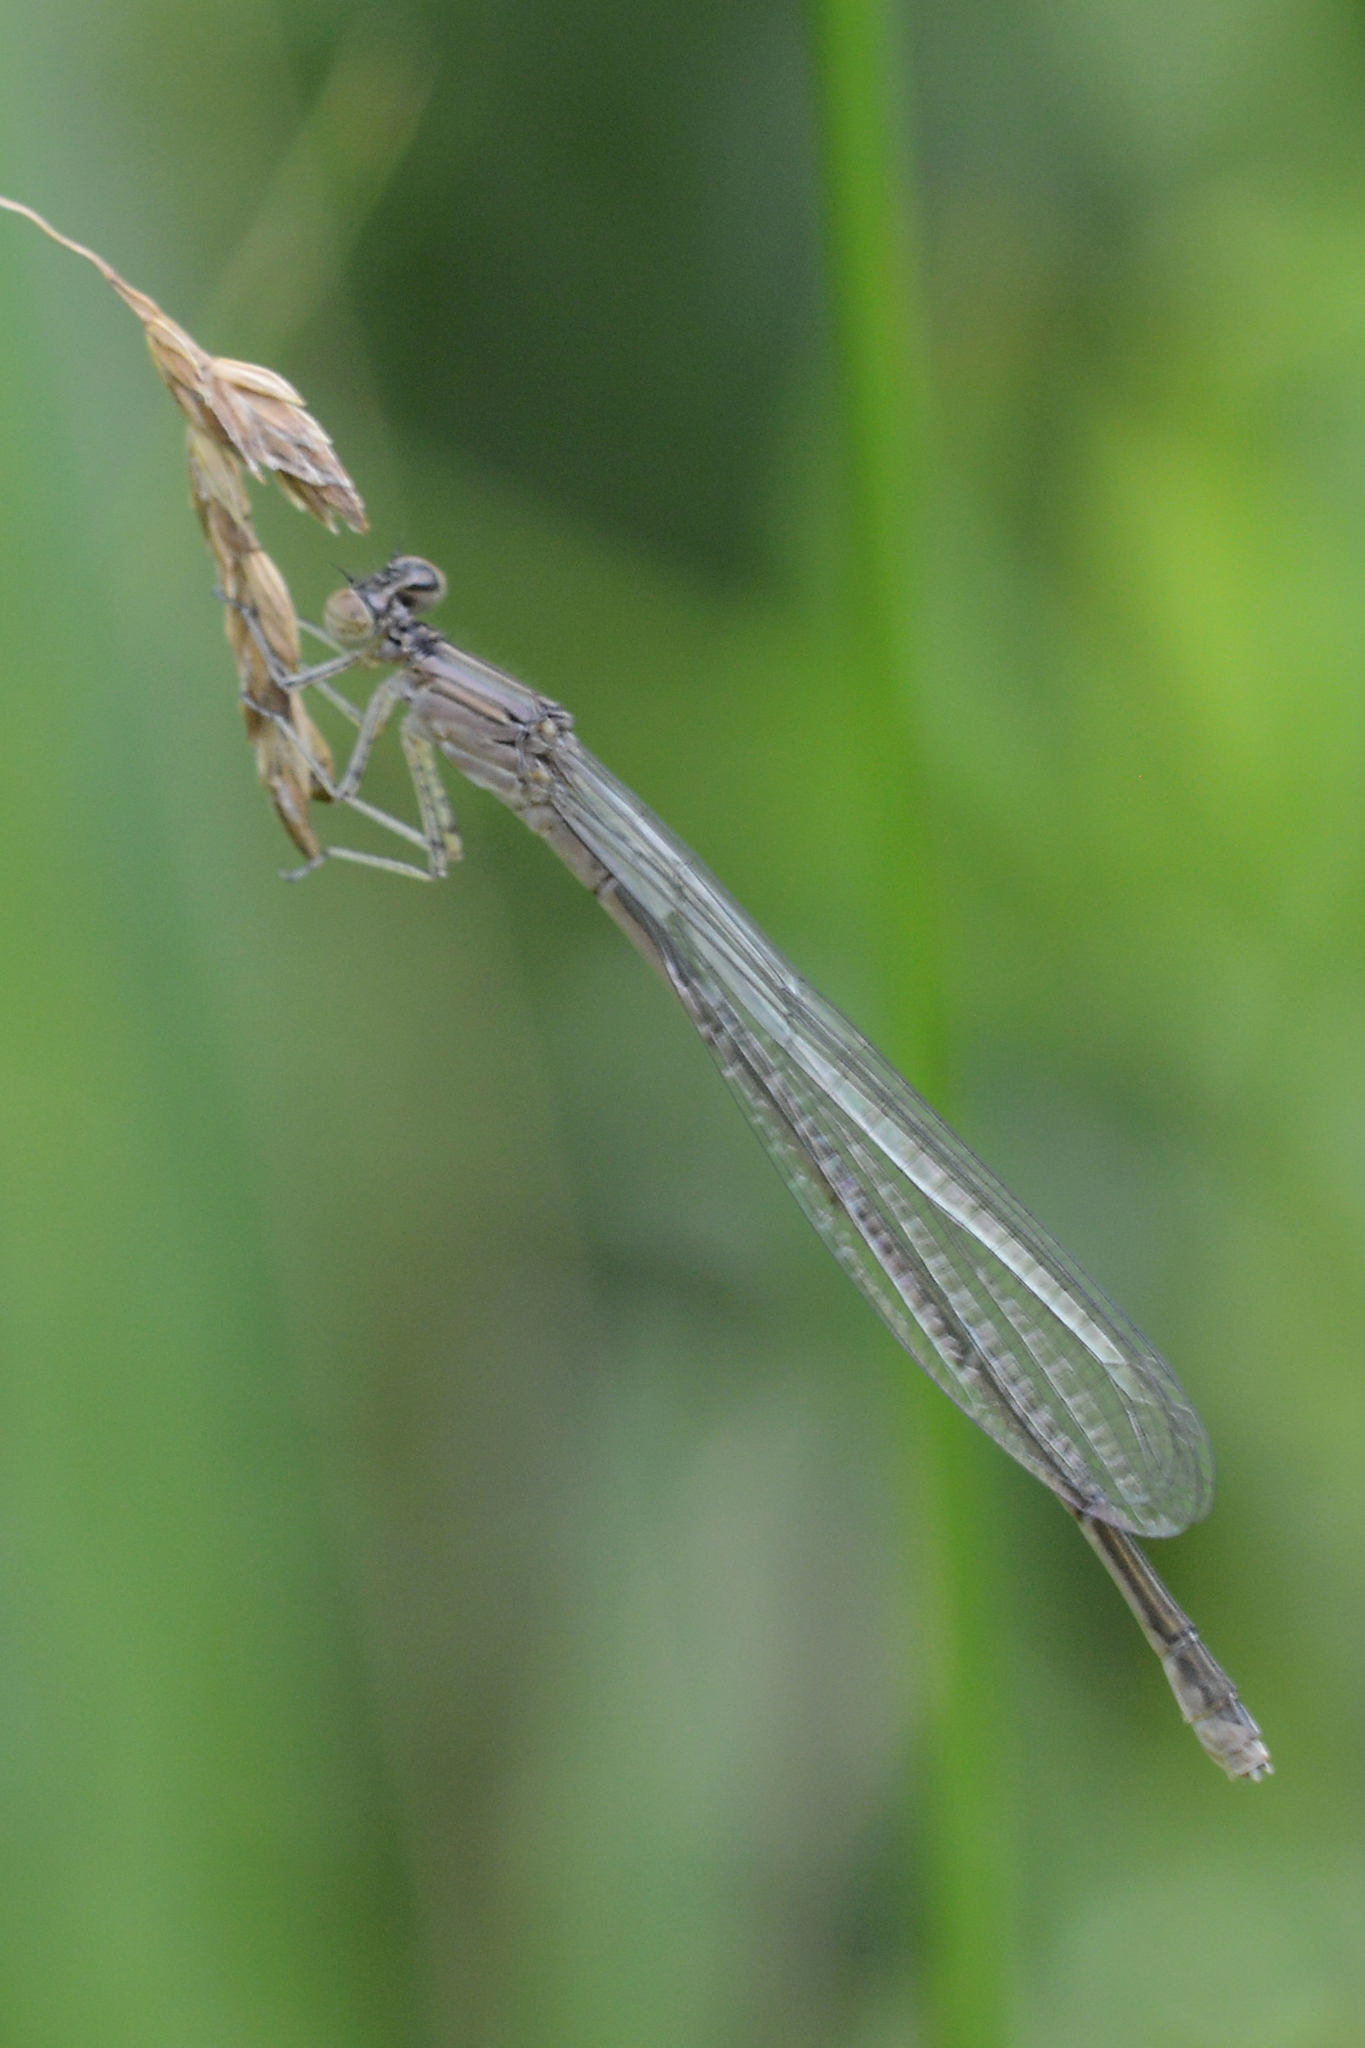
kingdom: Animalia
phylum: Arthropoda
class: Insecta
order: Odonata
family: Coenagrionidae
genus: Enallagma
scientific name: Enallagma exsulans
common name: Stream bluet
